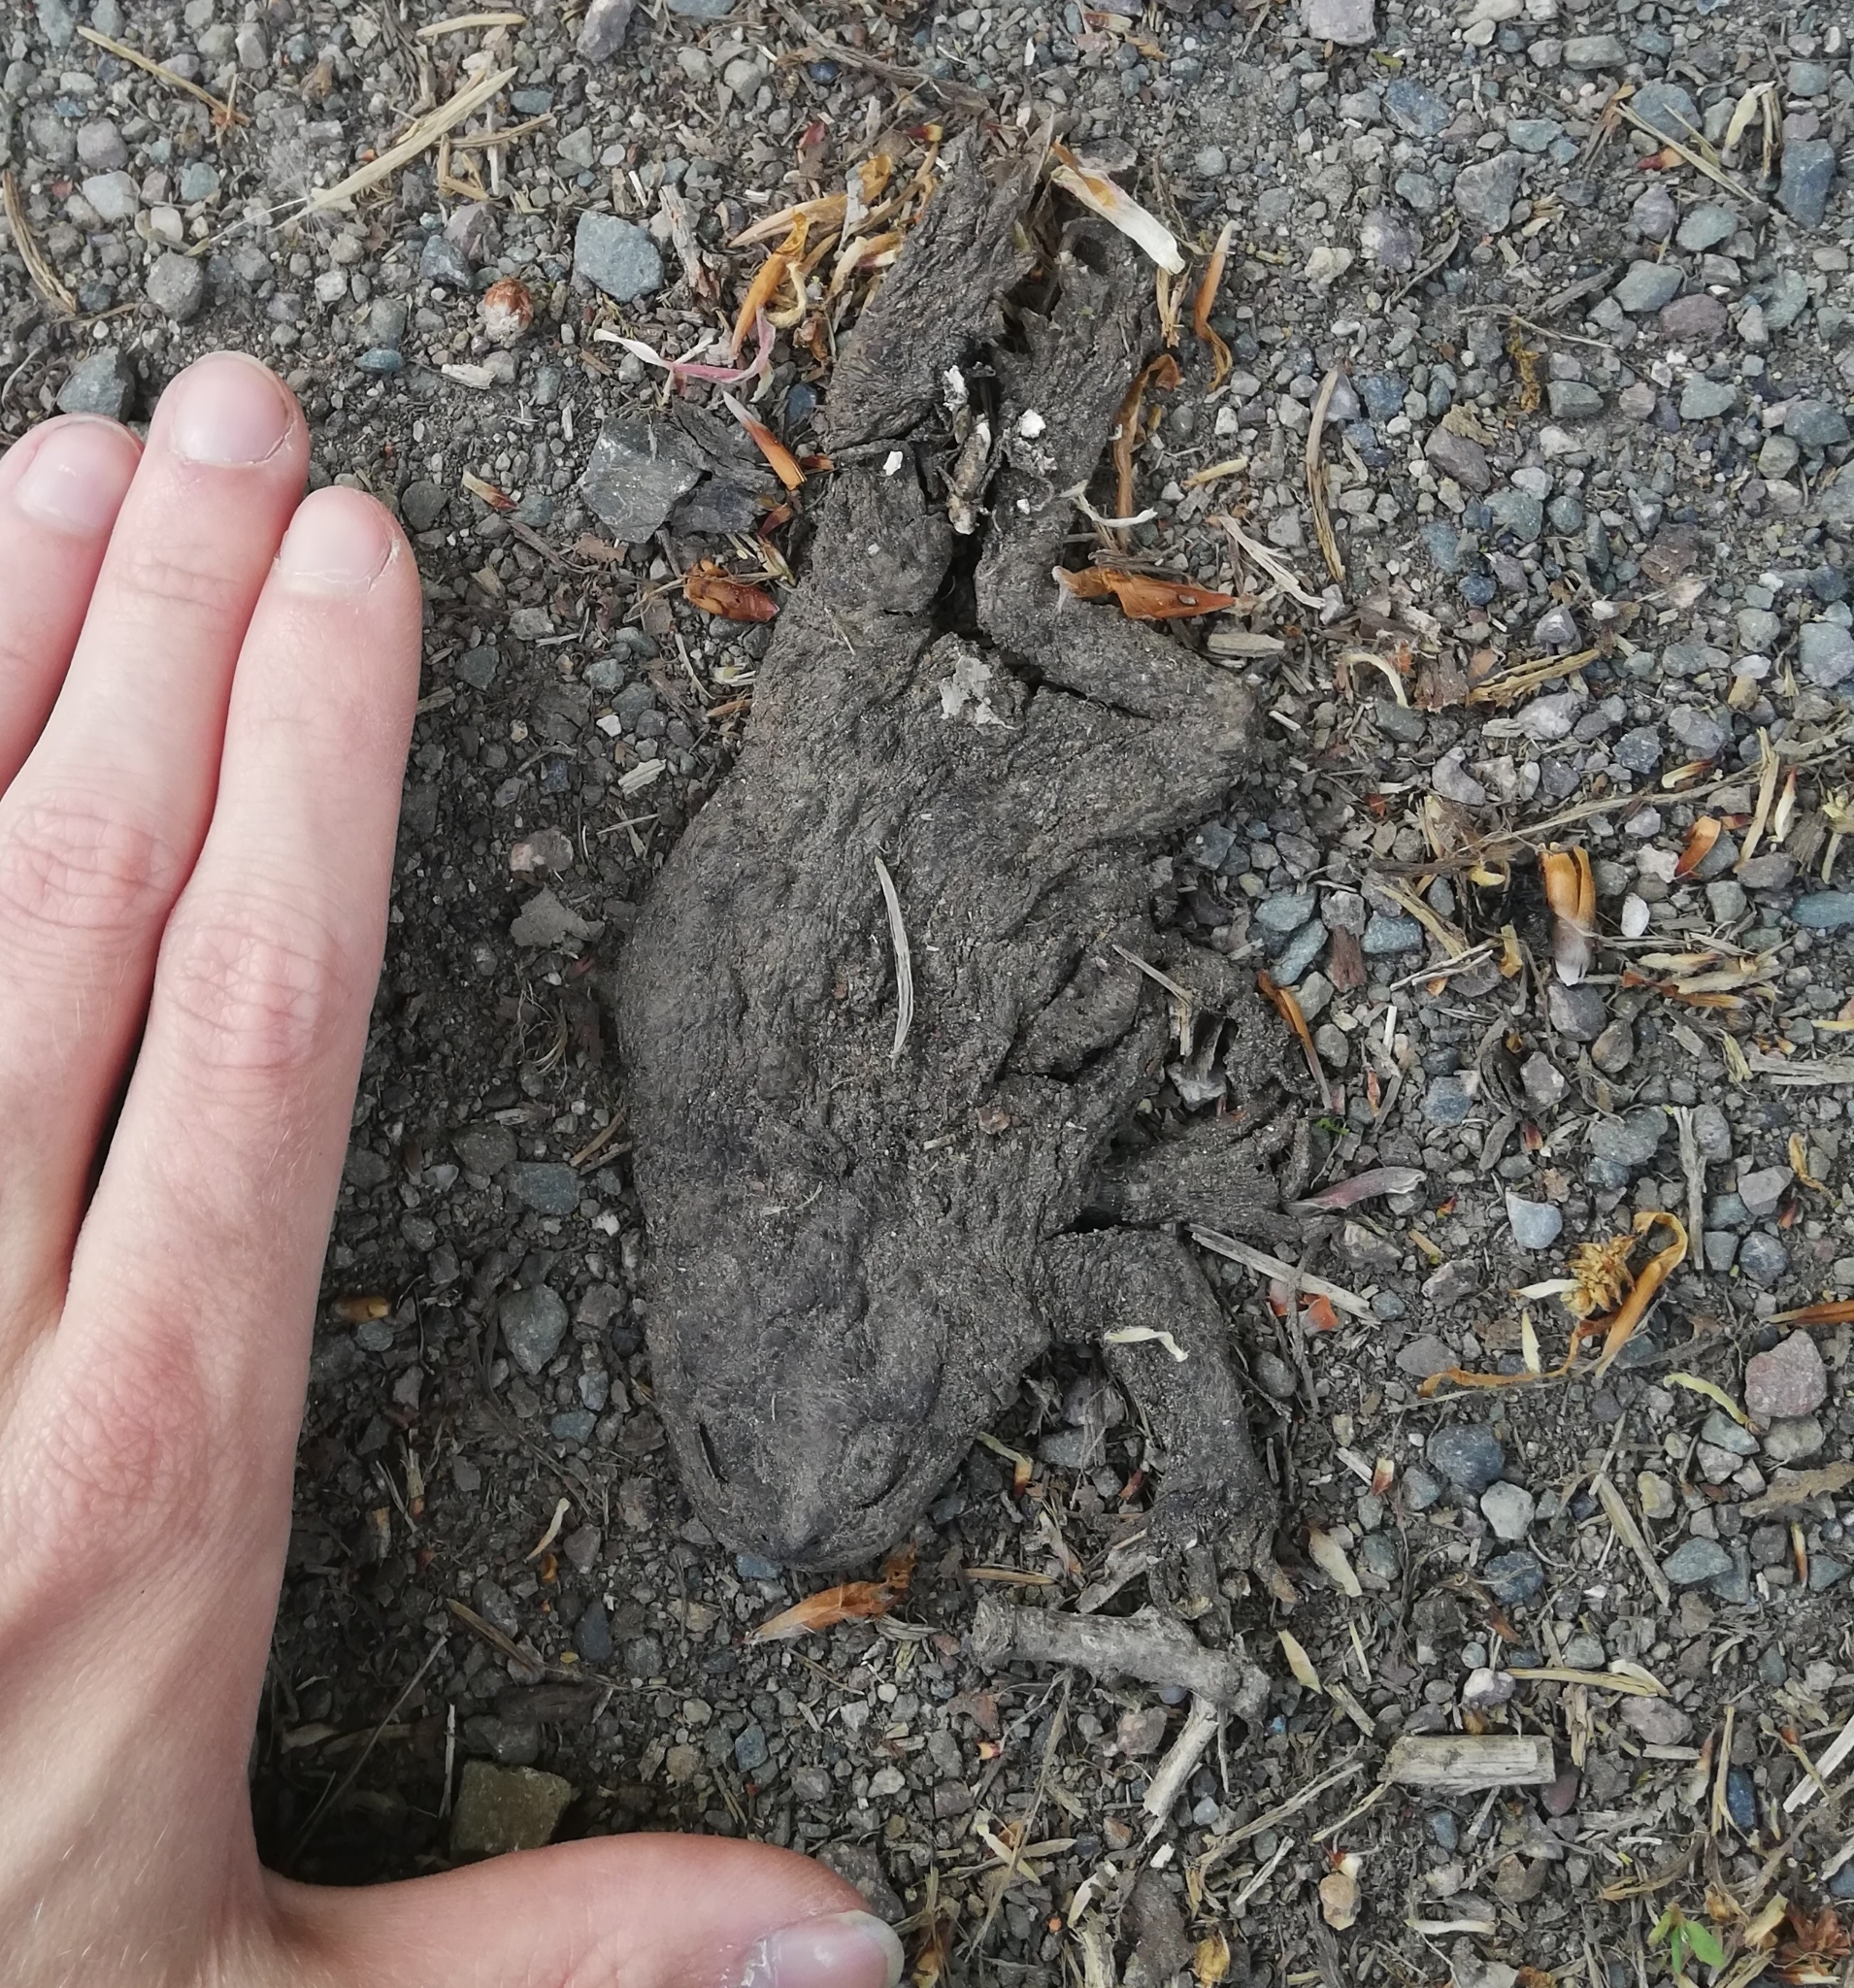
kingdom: Animalia
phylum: Chordata
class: Amphibia
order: Anura
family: Bufonidae
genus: Bufo
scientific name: Bufo bufo
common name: Common toad
